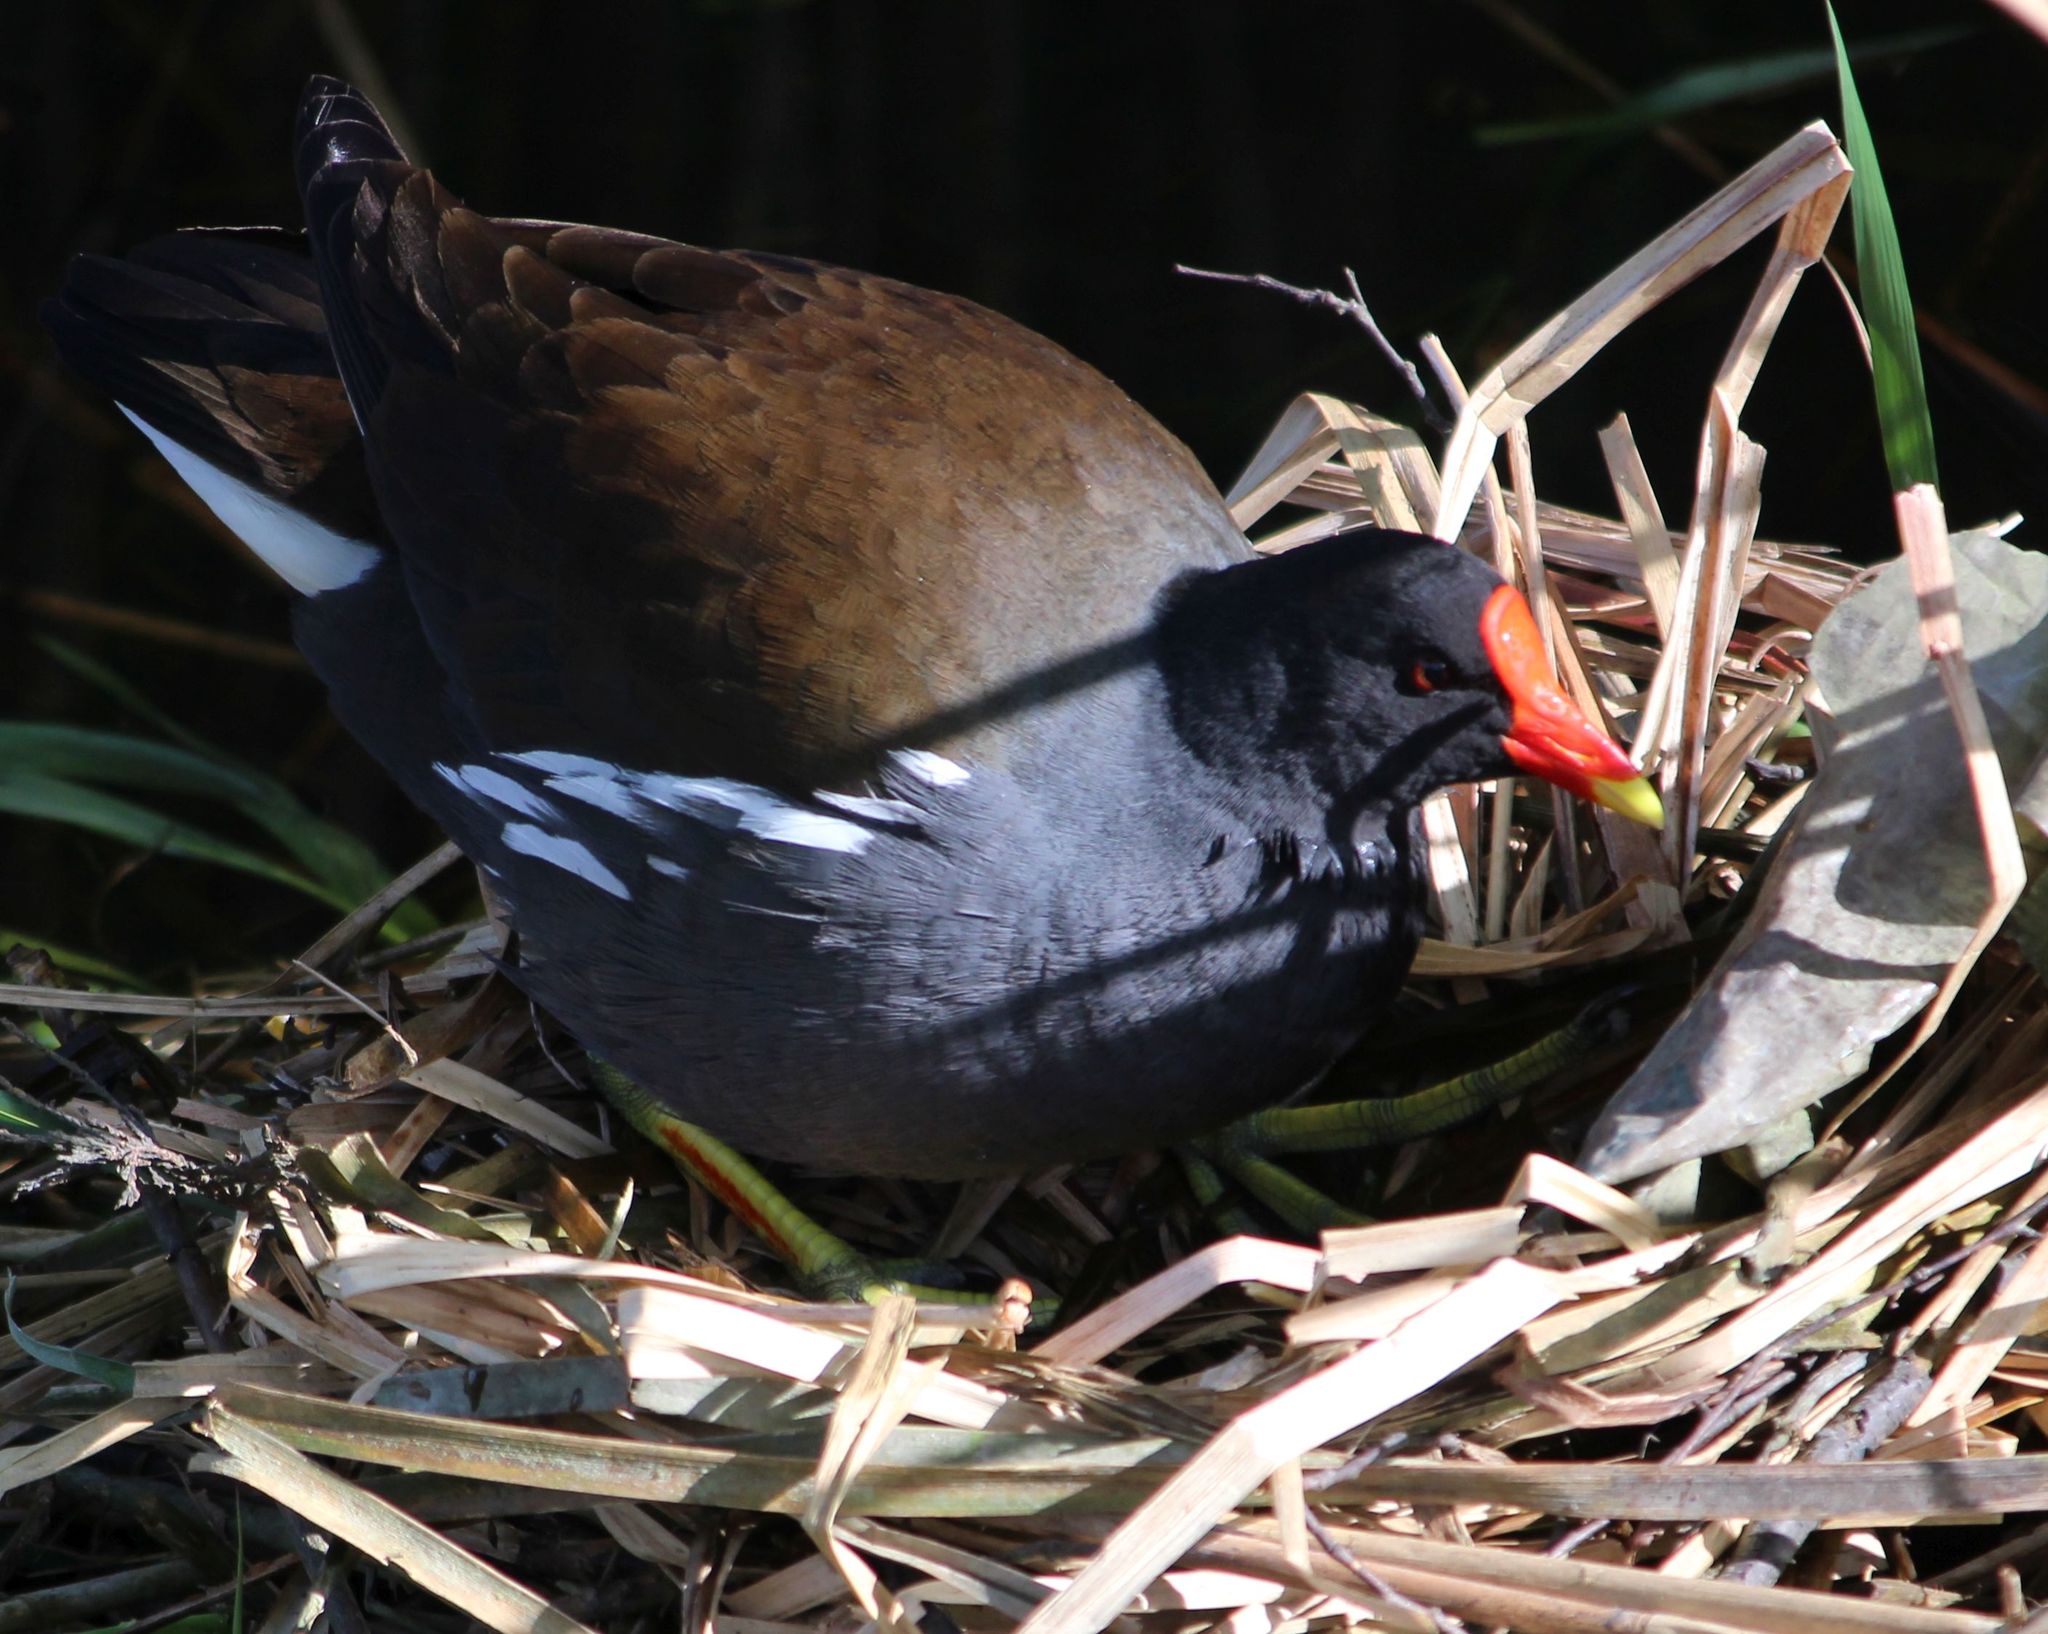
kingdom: Animalia
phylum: Chordata
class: Aves
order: Gruiformes
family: Rallidae
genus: Gallinula
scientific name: Gallinula chloropus
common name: Common moorhen
